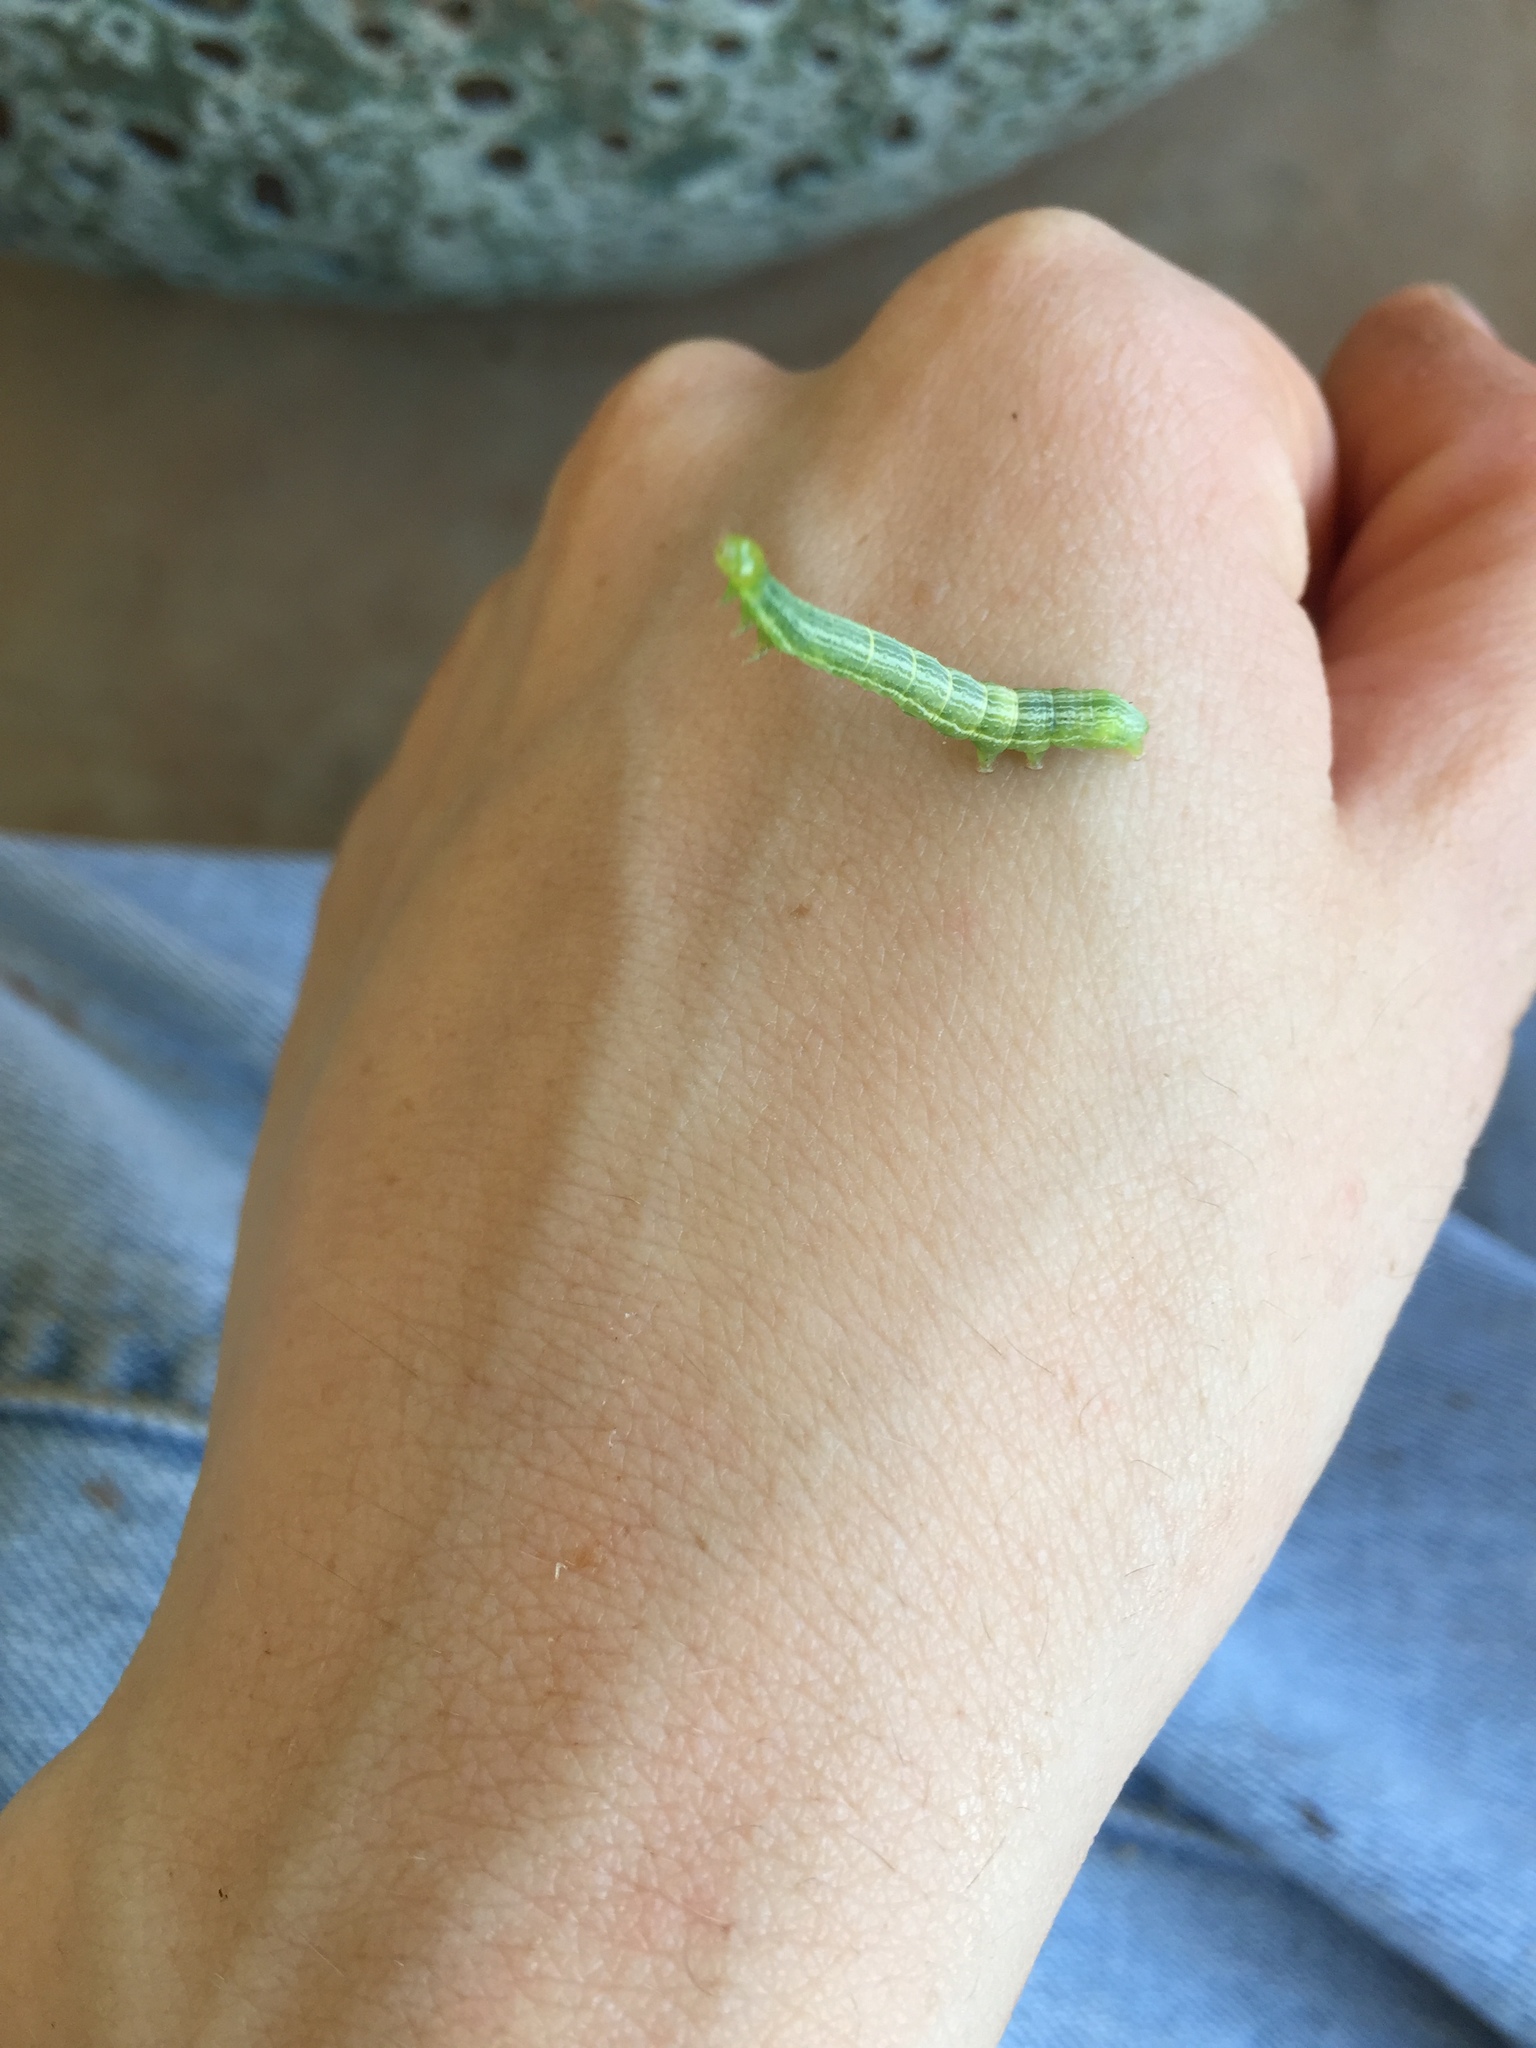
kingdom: Animalia
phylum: Arthropoda
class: Insecta
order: Lepidoptera
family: Noctuidae
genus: Callopistria
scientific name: Callopistria floridensis
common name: Florida fern moth
